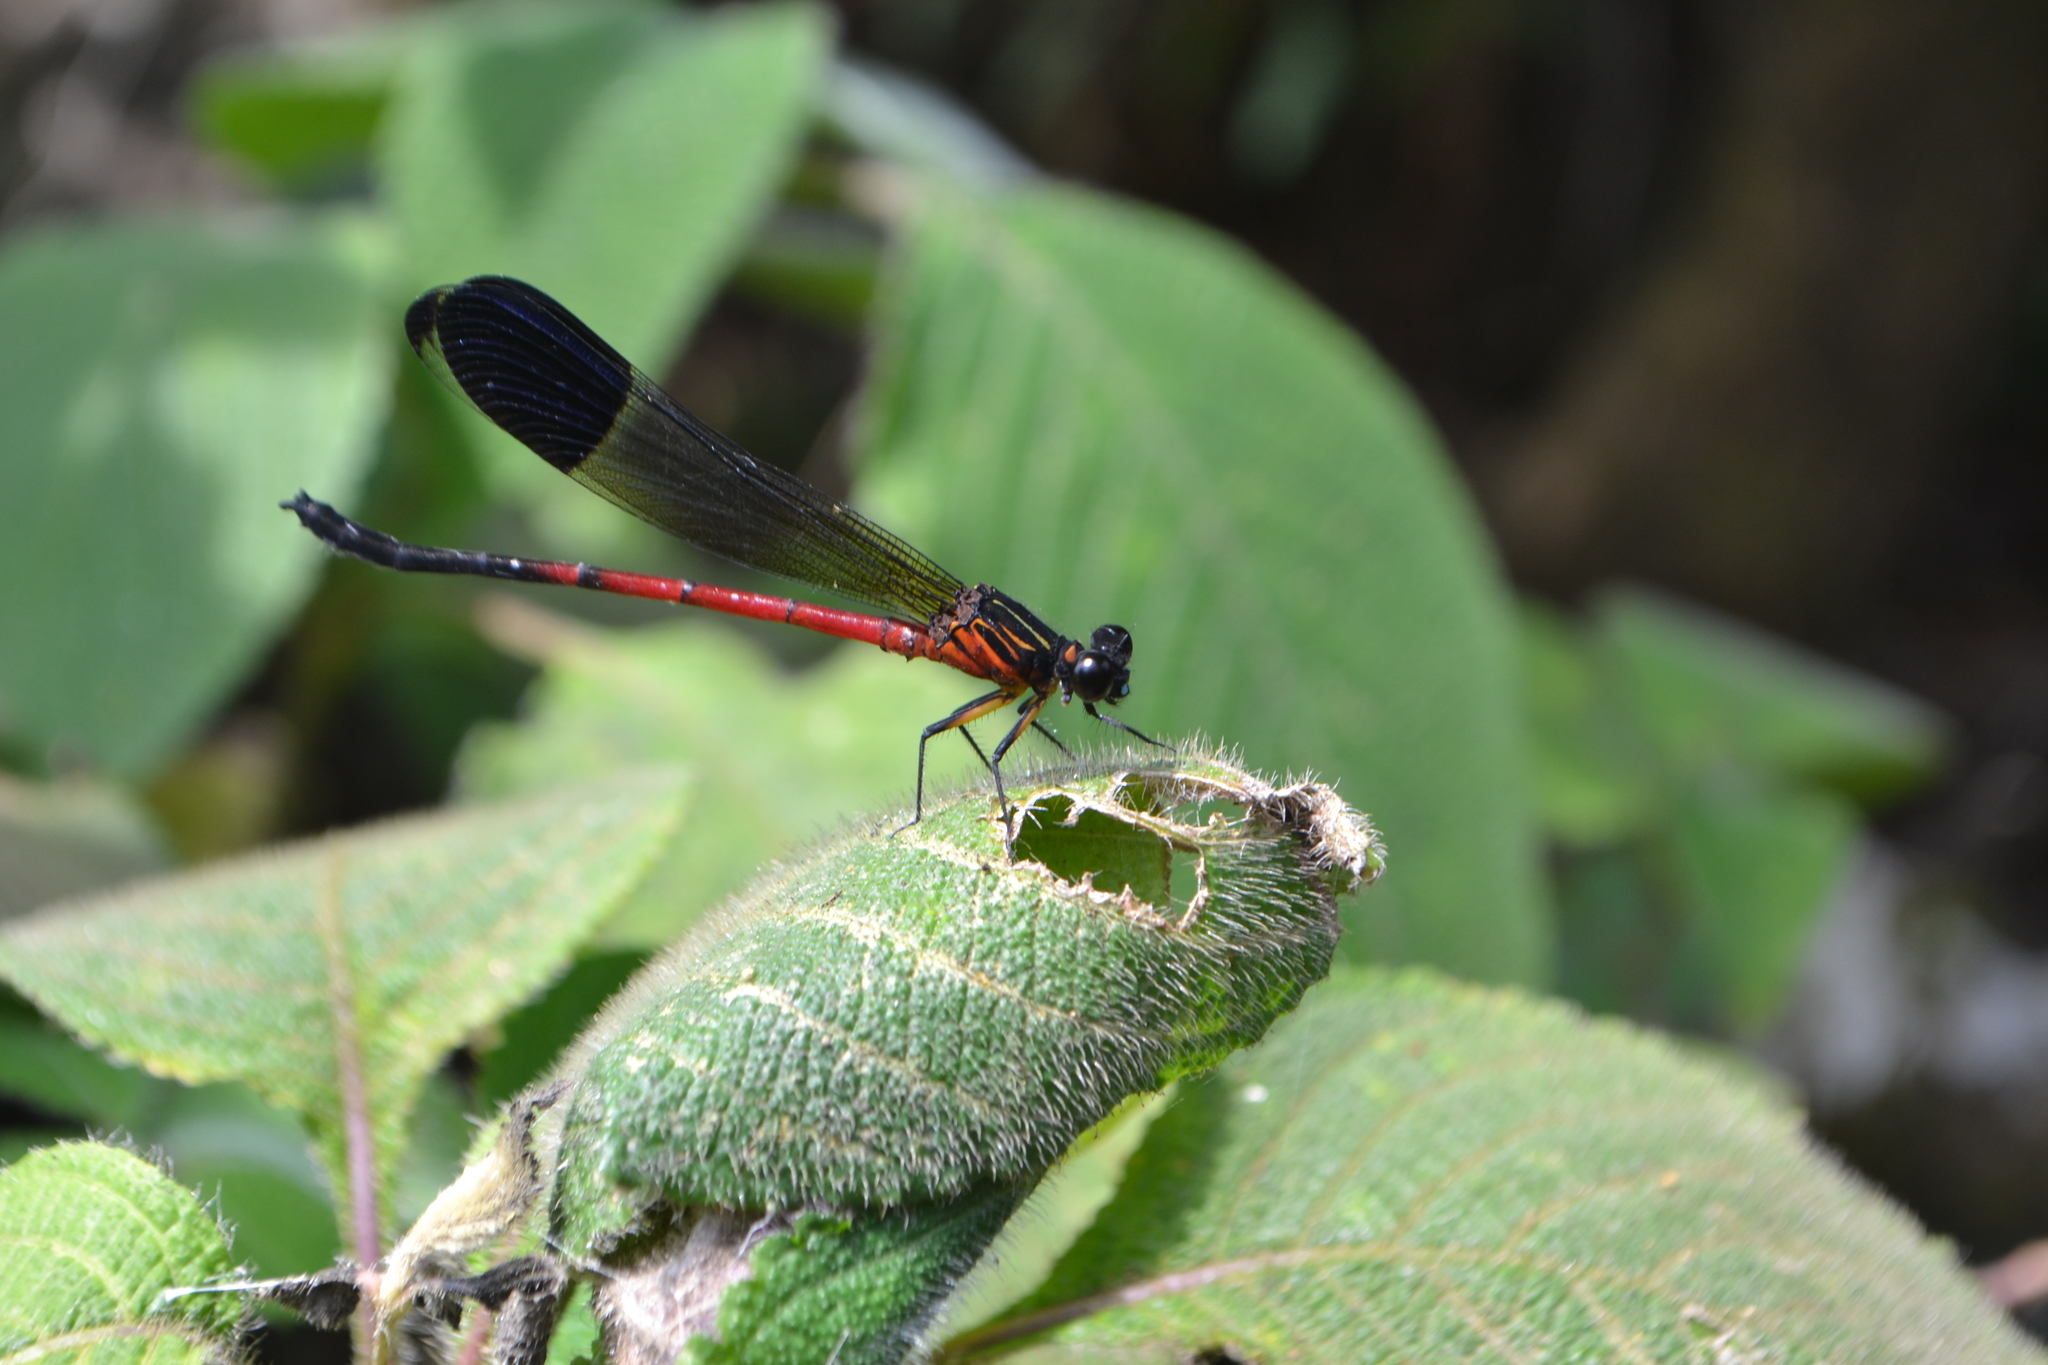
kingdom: Animalia
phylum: Arthropoda
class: Insecta
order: Odonata
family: Euphaeidae
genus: Euphaea
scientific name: Euphaea dispar
